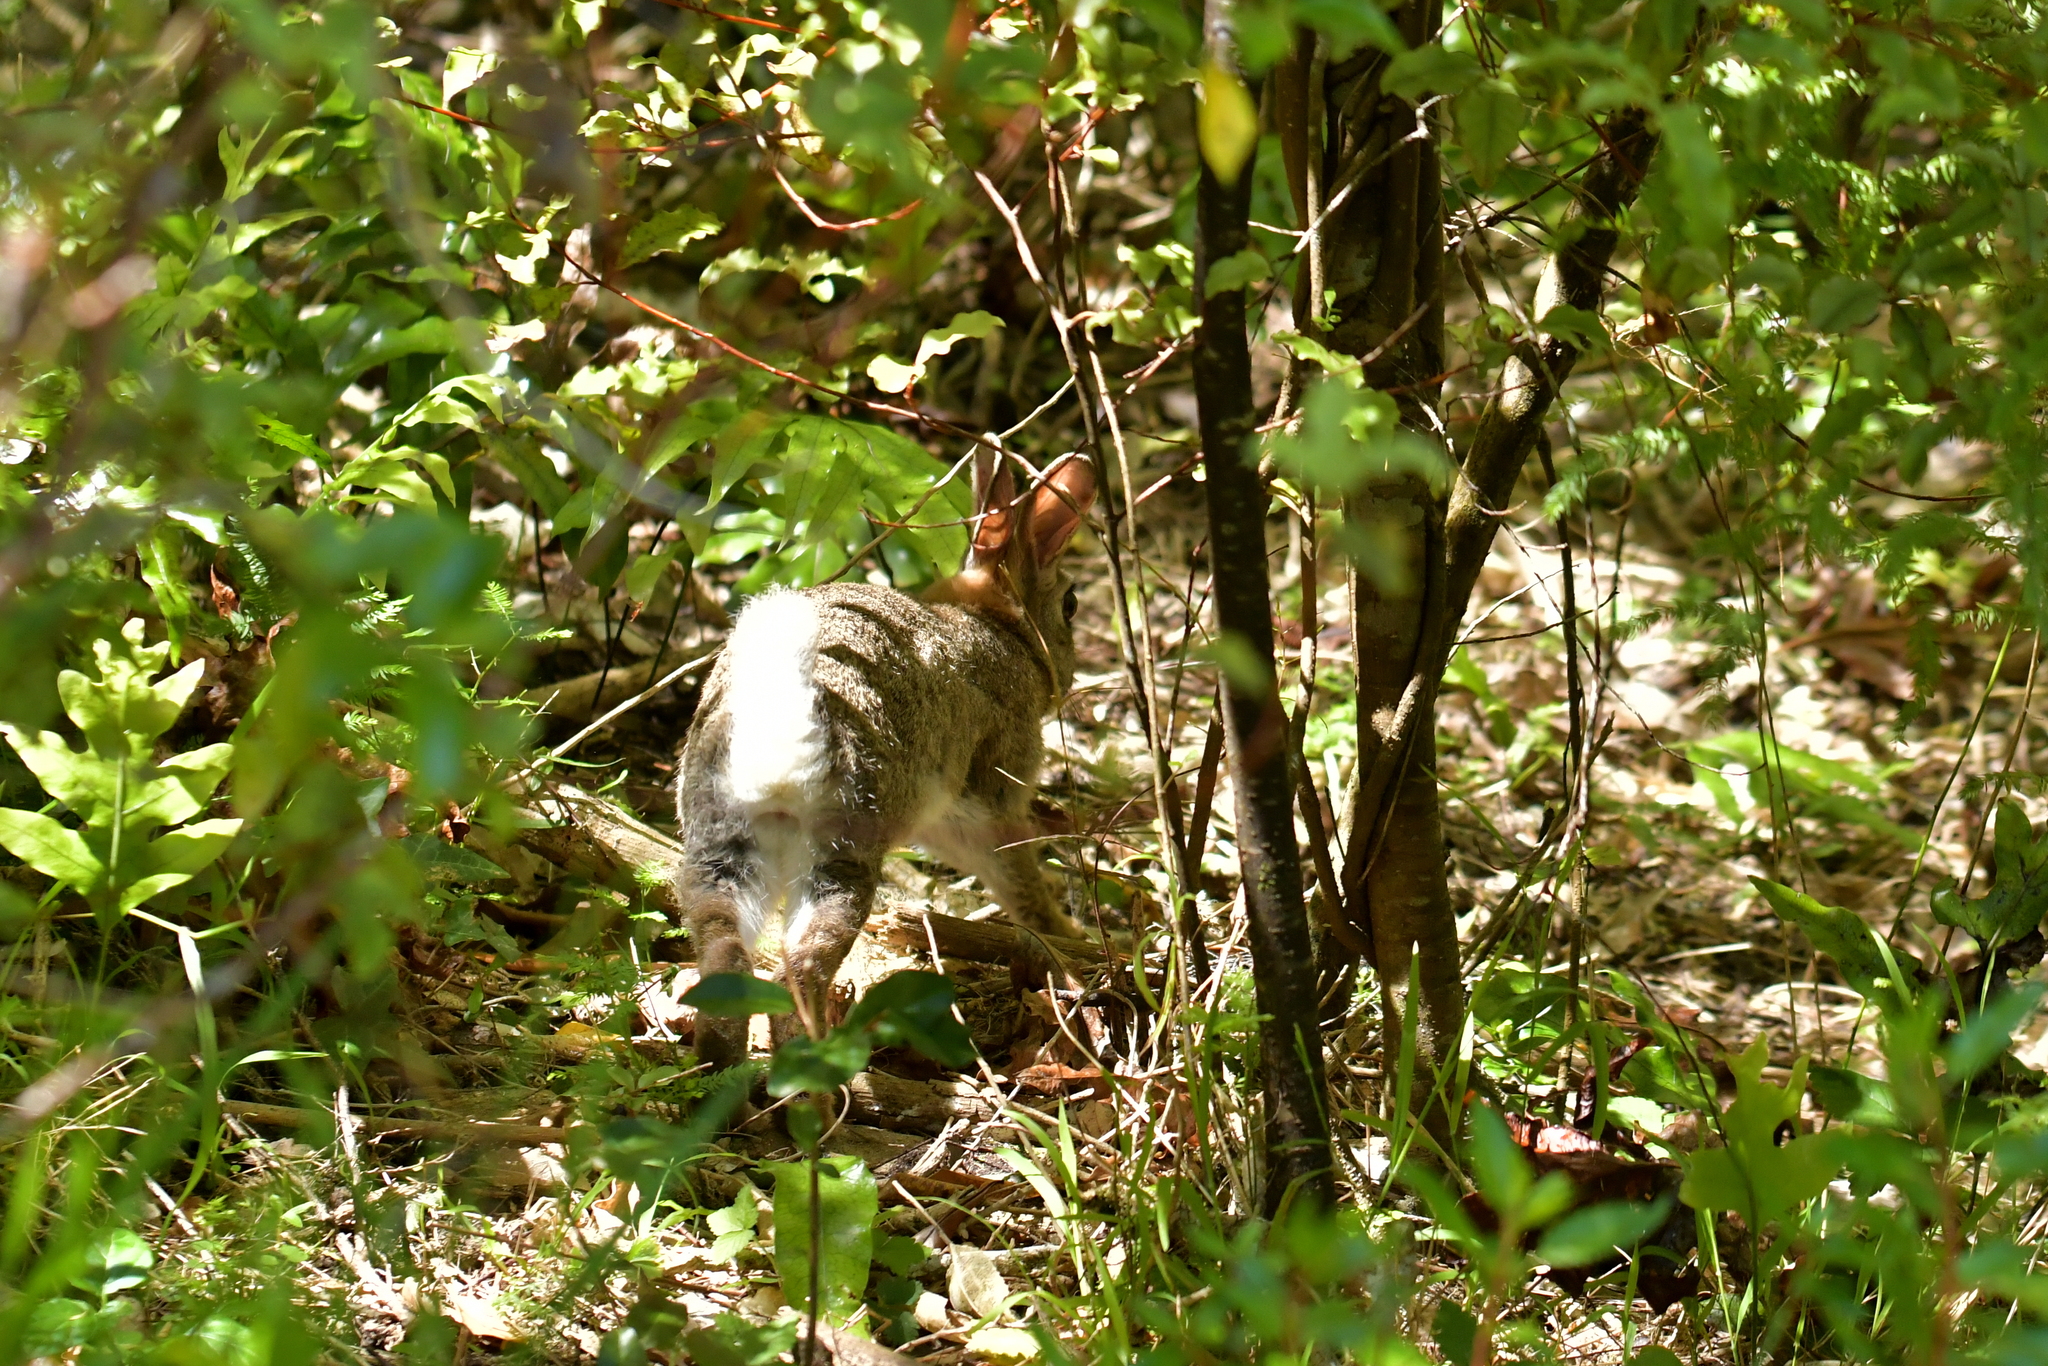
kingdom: Animalia
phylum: Chordata
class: Mammalia
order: Lagomorpha
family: Leporidae
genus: Oryctolagus
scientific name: Oryctolagus cuniculus
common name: European rabbit
